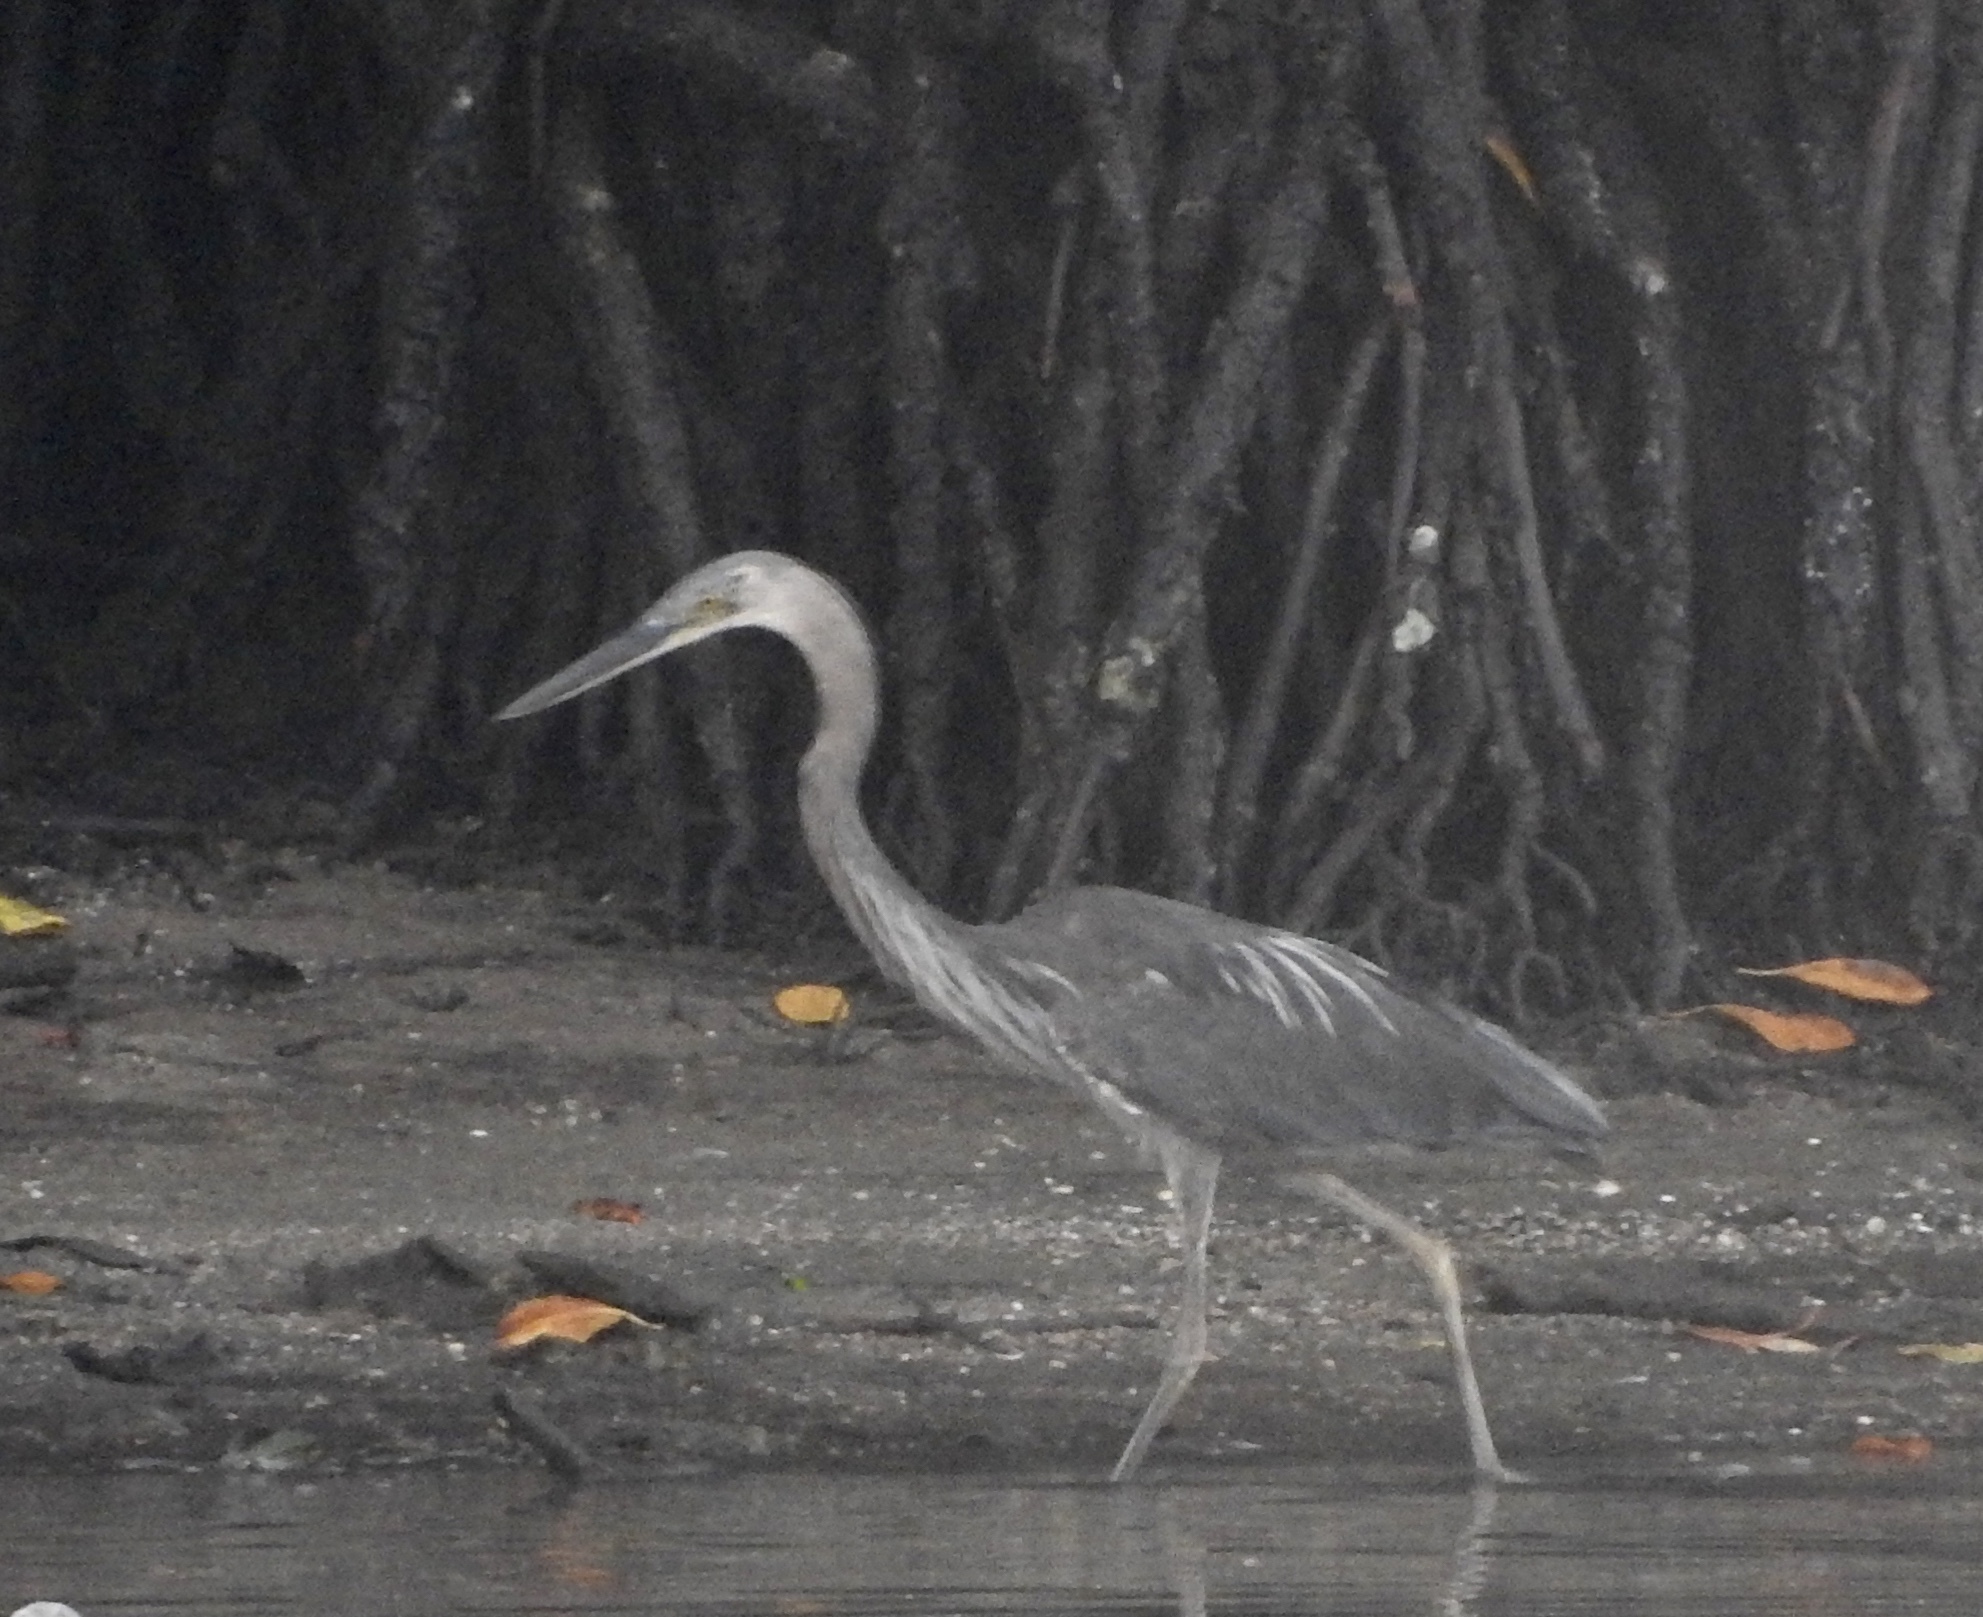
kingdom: Animalia
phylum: Chordata
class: Aves
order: Pelecaniformes
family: Ardeidae
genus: Ardea
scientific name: Ardea sumatrana
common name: Great-billed heron
